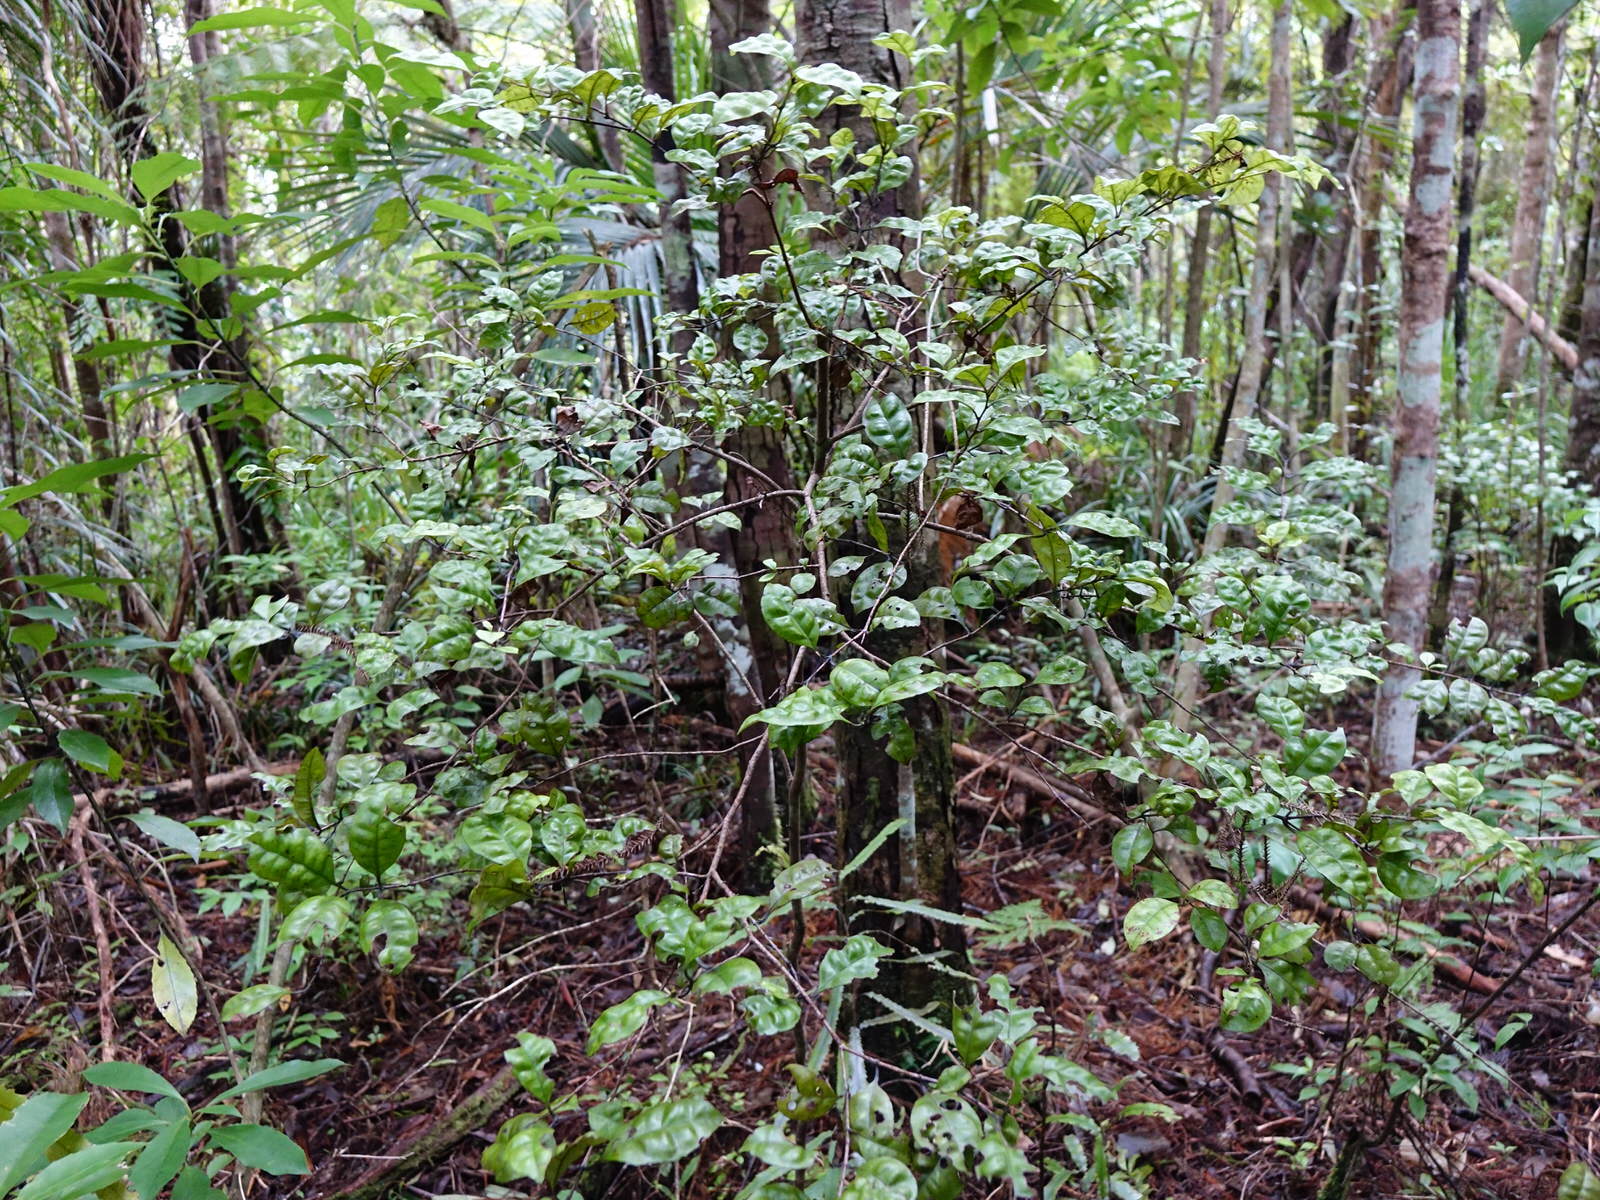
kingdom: Plantae
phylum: Tracheophyta
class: Magnoliopsida
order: Myrtales
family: Myrtaceae
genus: Lophomyrtus
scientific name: Lophomyrtus bullata
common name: Rama rama
